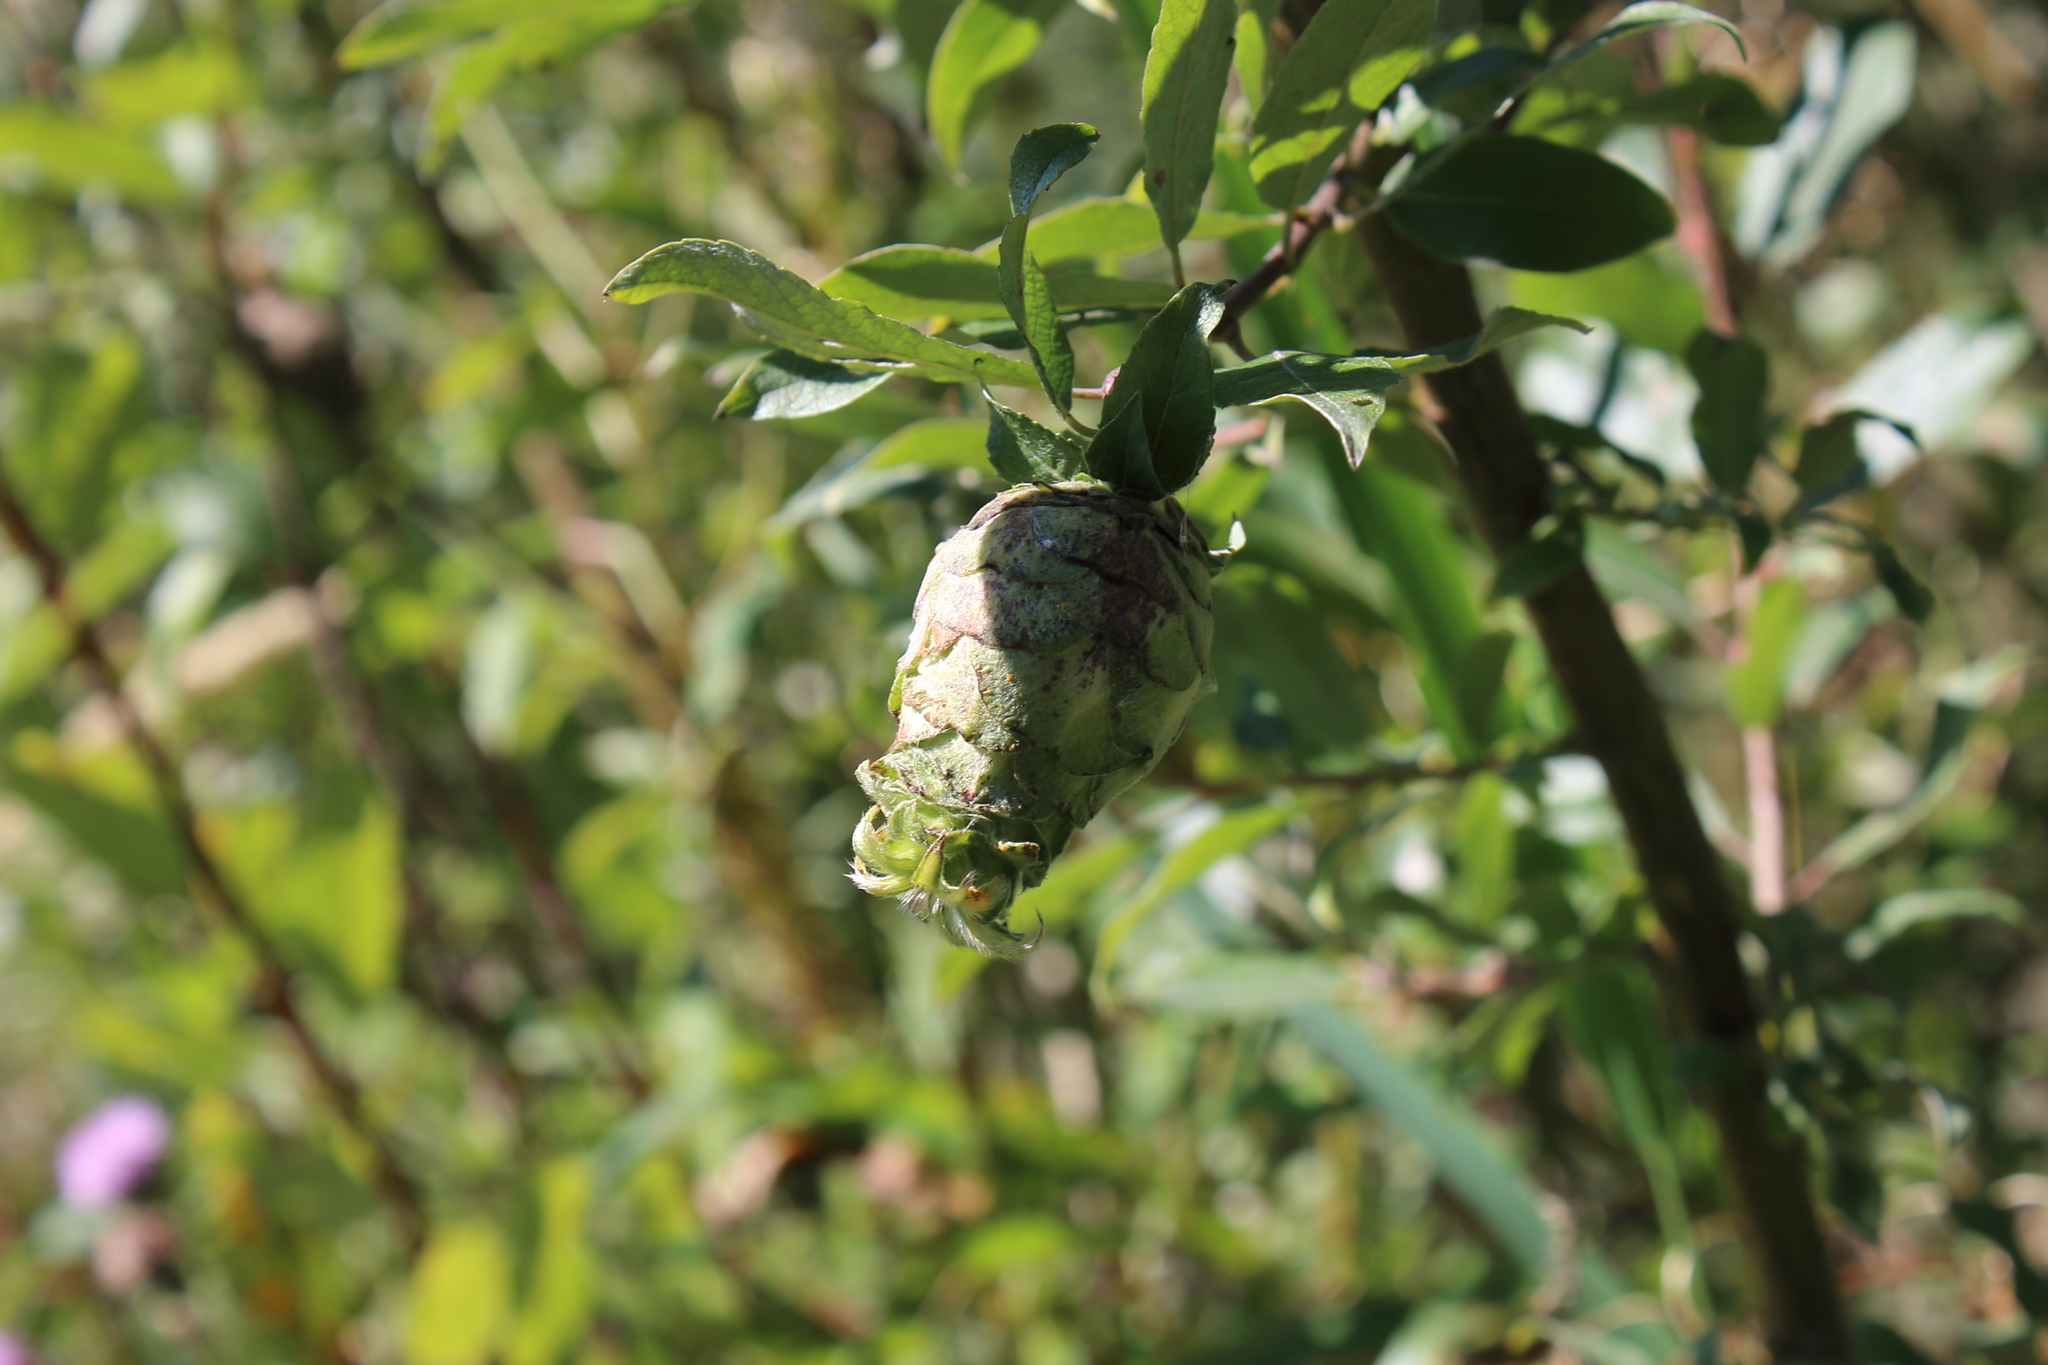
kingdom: Animalia
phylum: Arthropoda
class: Insecta
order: Diptera
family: Cecidomyiidae
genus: Rabdophaga
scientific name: Rabdophaga strobiloides
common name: Willow pinecone gall midge
